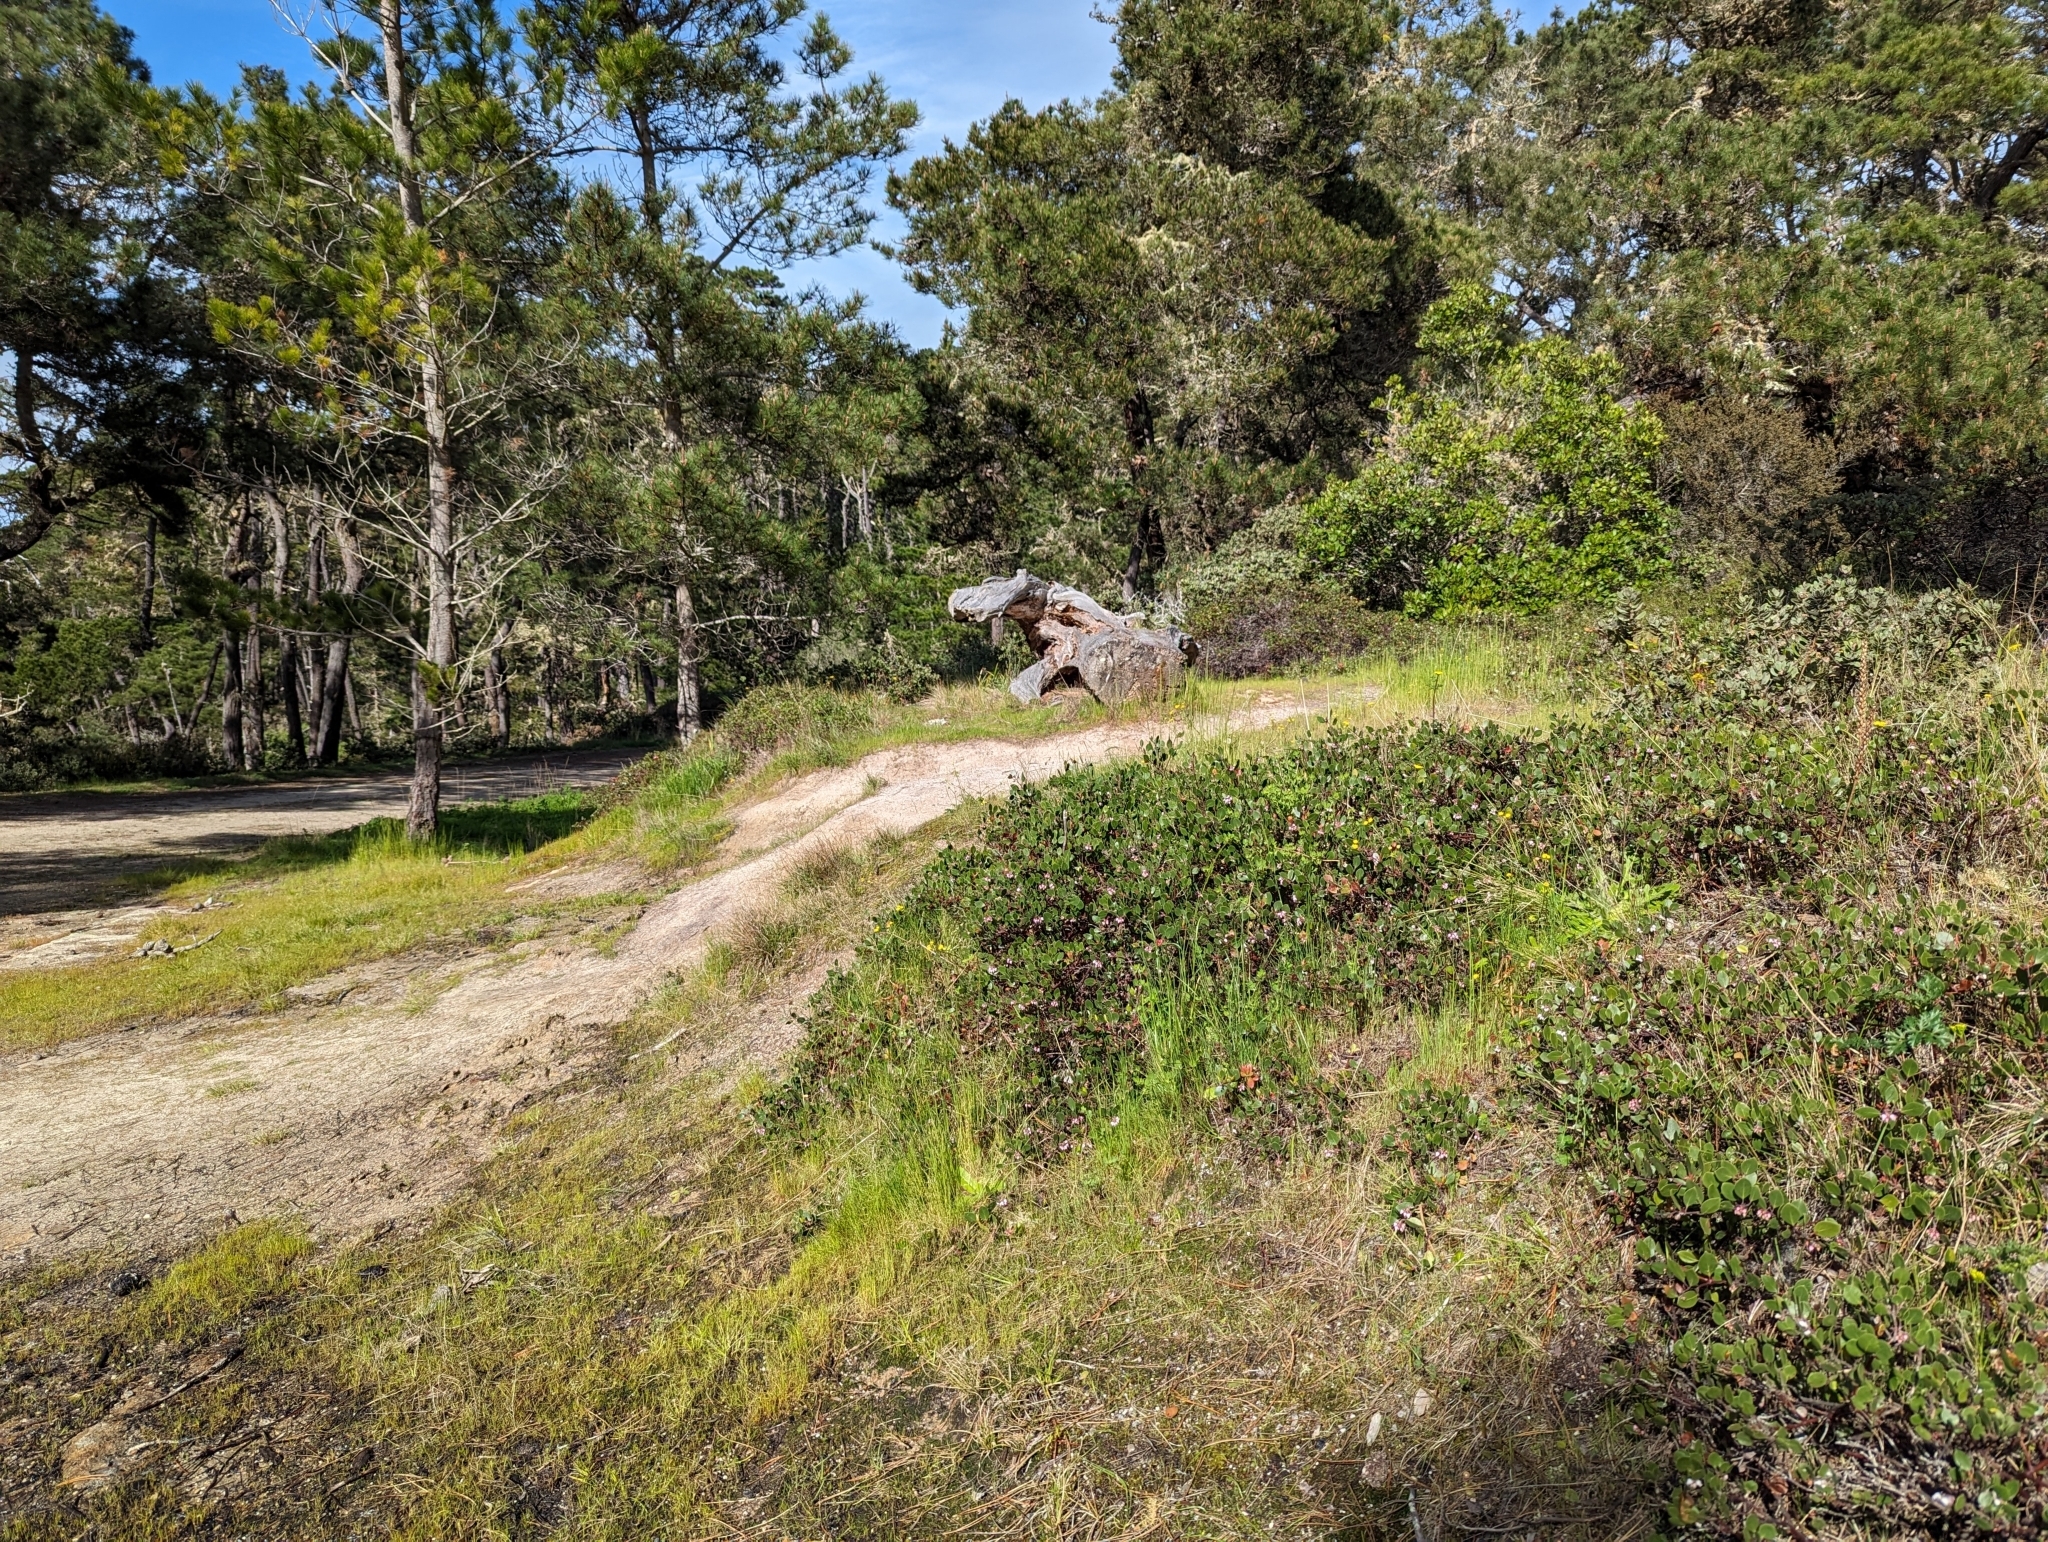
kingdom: Plantae
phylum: Tracheophyta
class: Magnoliopsida
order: Ericales
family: Ericaceae
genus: Arctostaphylos
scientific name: Arctostaphylos hookeri
